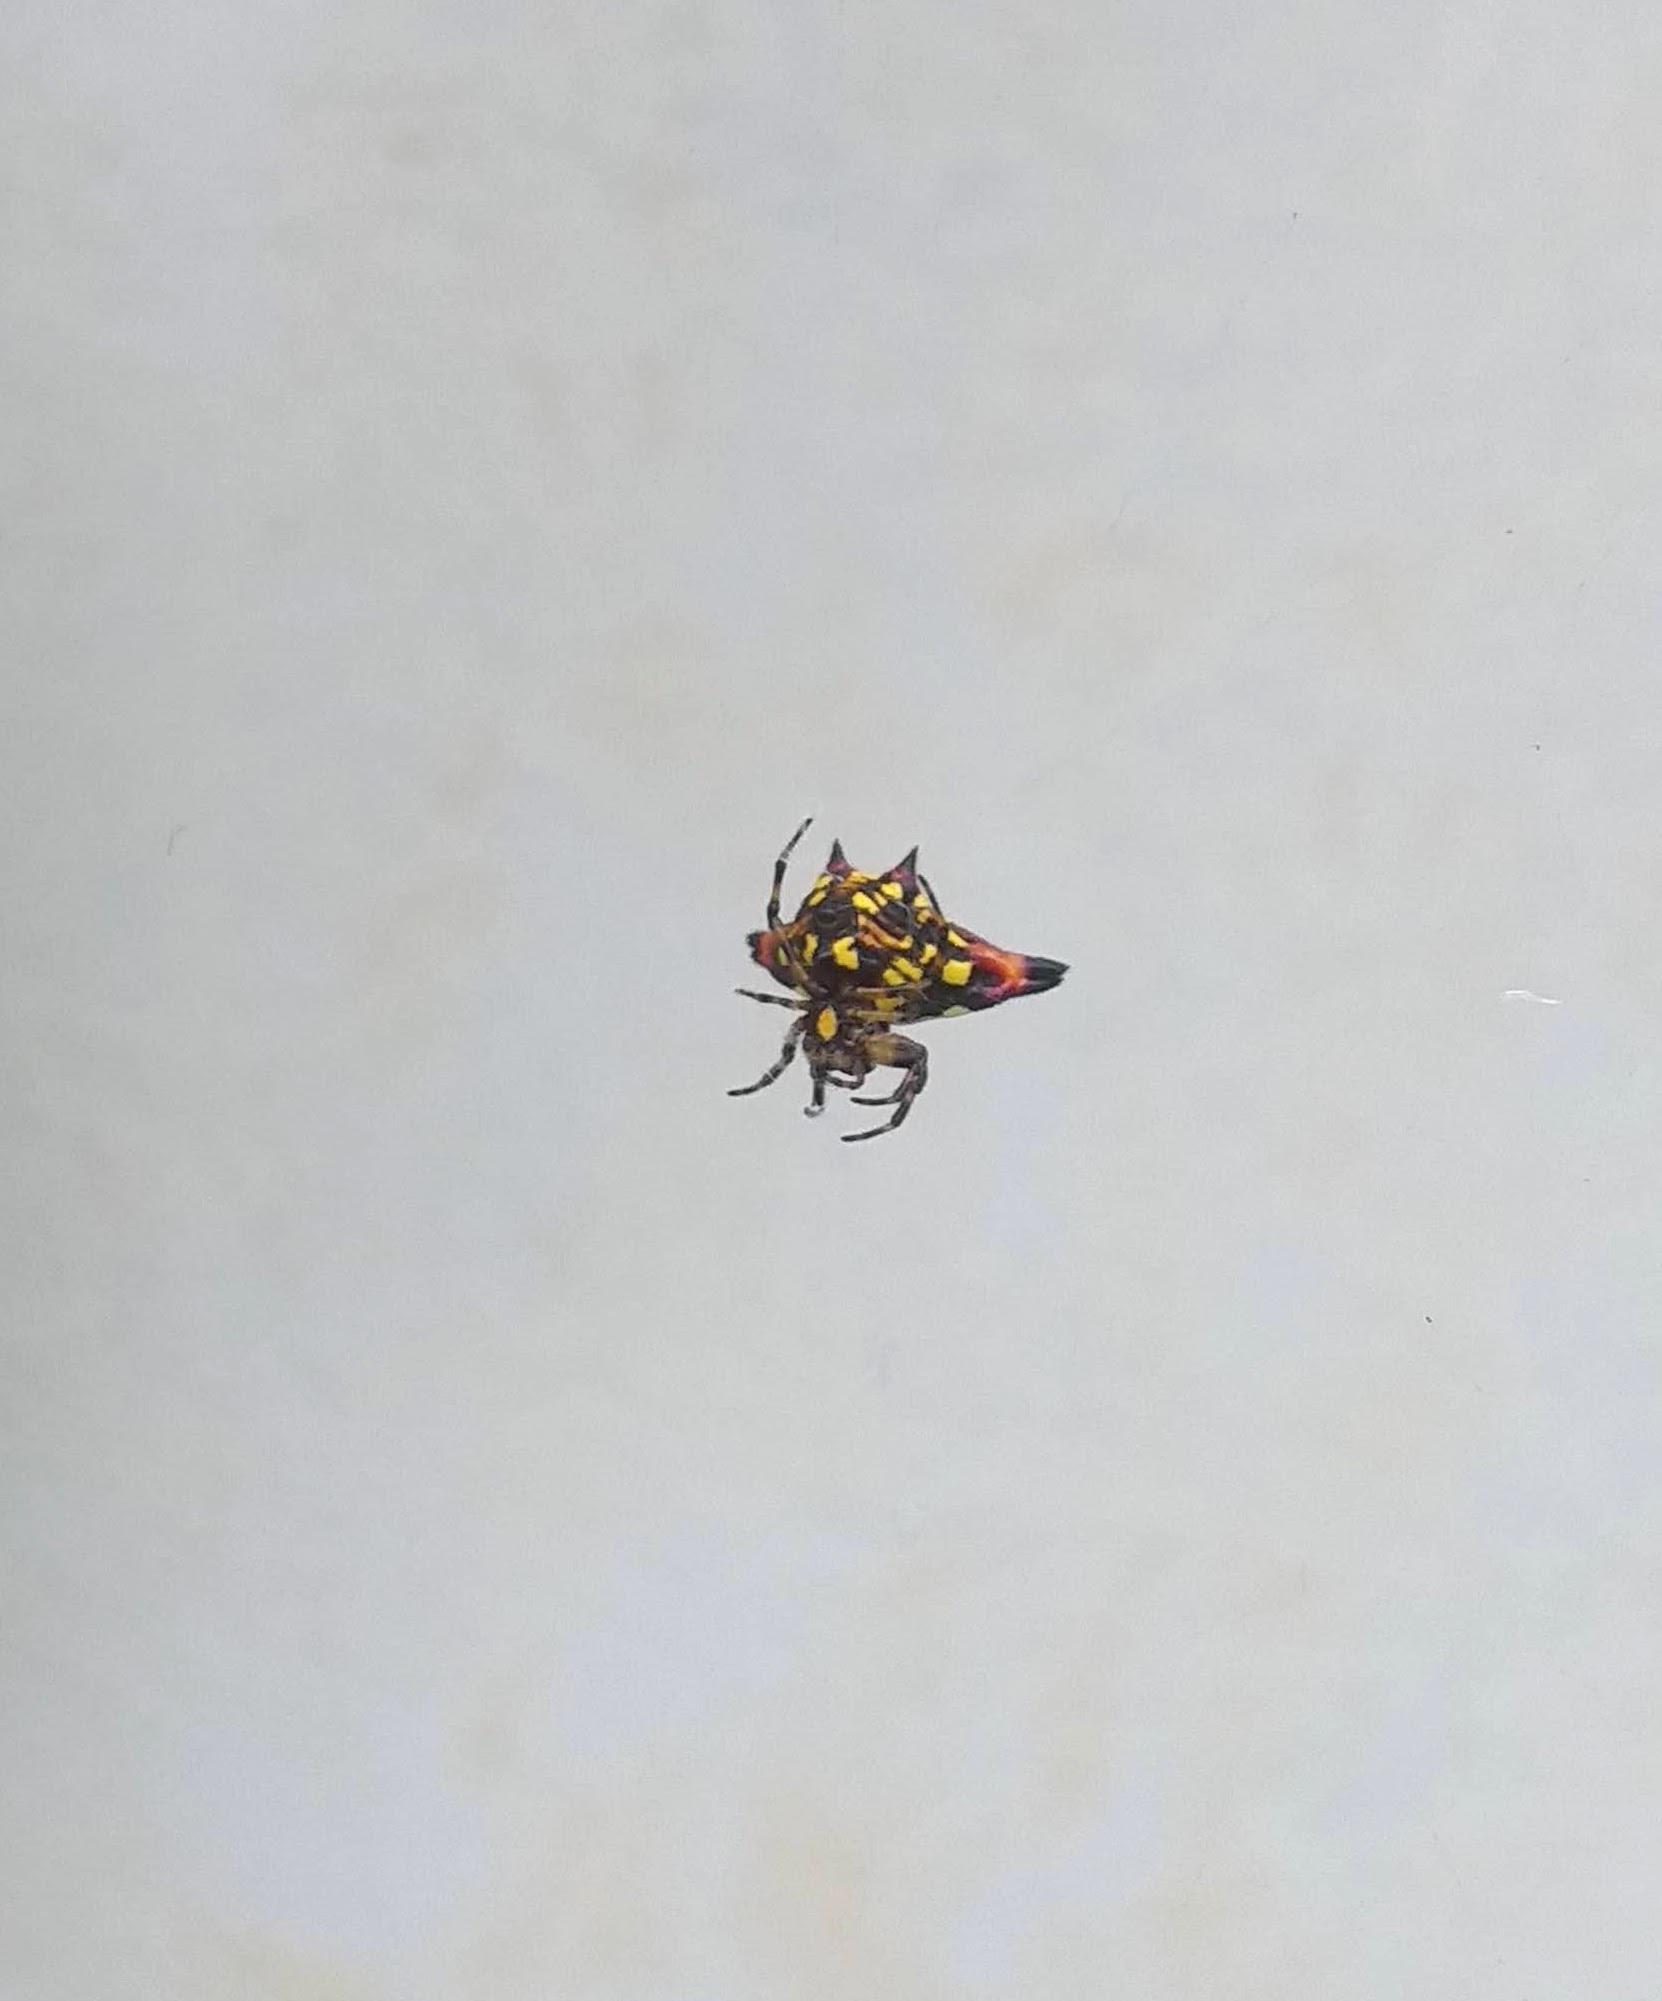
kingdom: Animalia
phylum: Arthropoda
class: Arachnida
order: Araneae
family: Araneidae
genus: Gasteracantha
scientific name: Gasteracantha geminata
